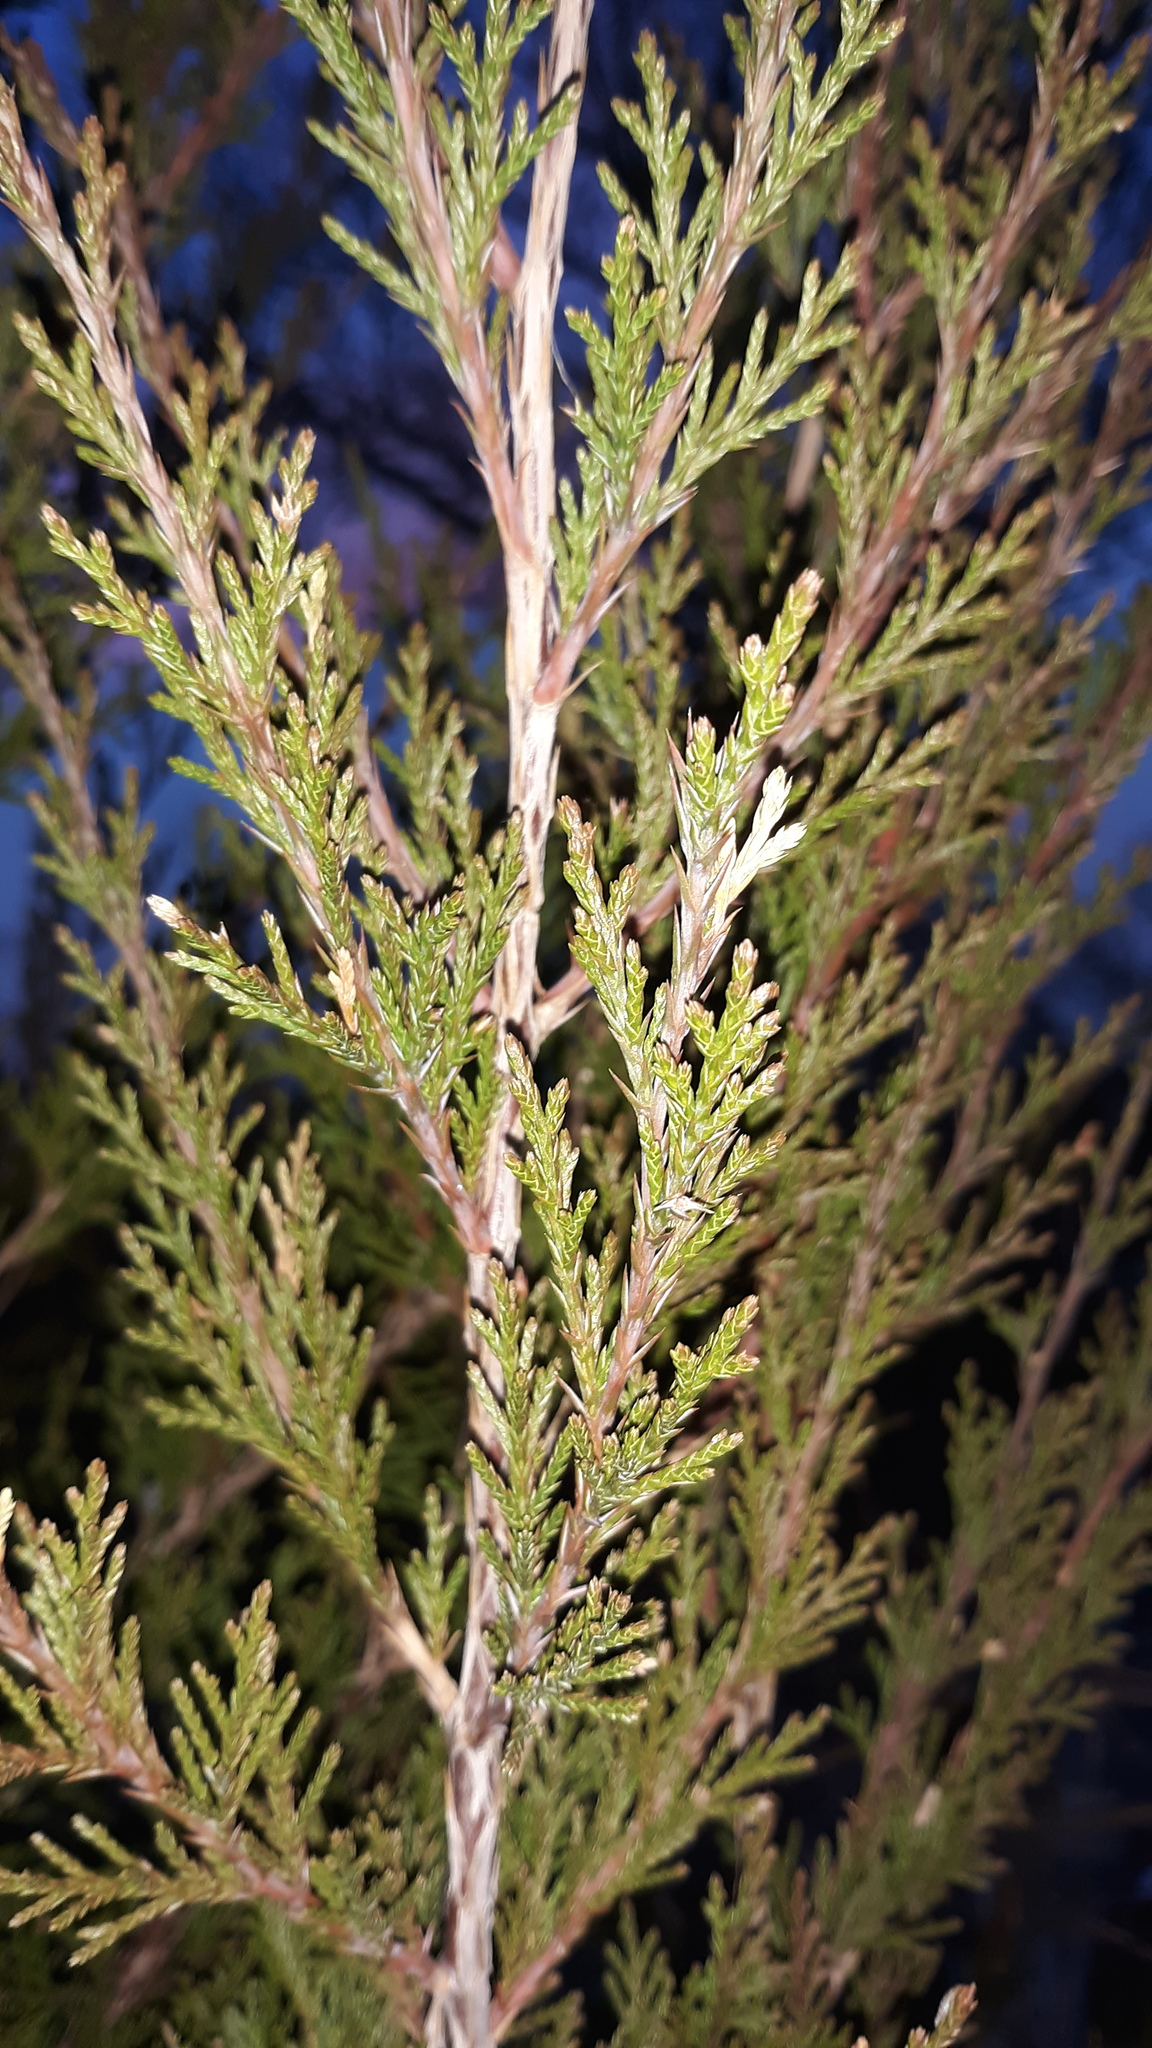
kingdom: Plantae
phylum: Tracheophyta
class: Pinopsida
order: Pinales
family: Cupressaceae
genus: Juniperus
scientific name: Juniperus virginiana
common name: Red juniper
